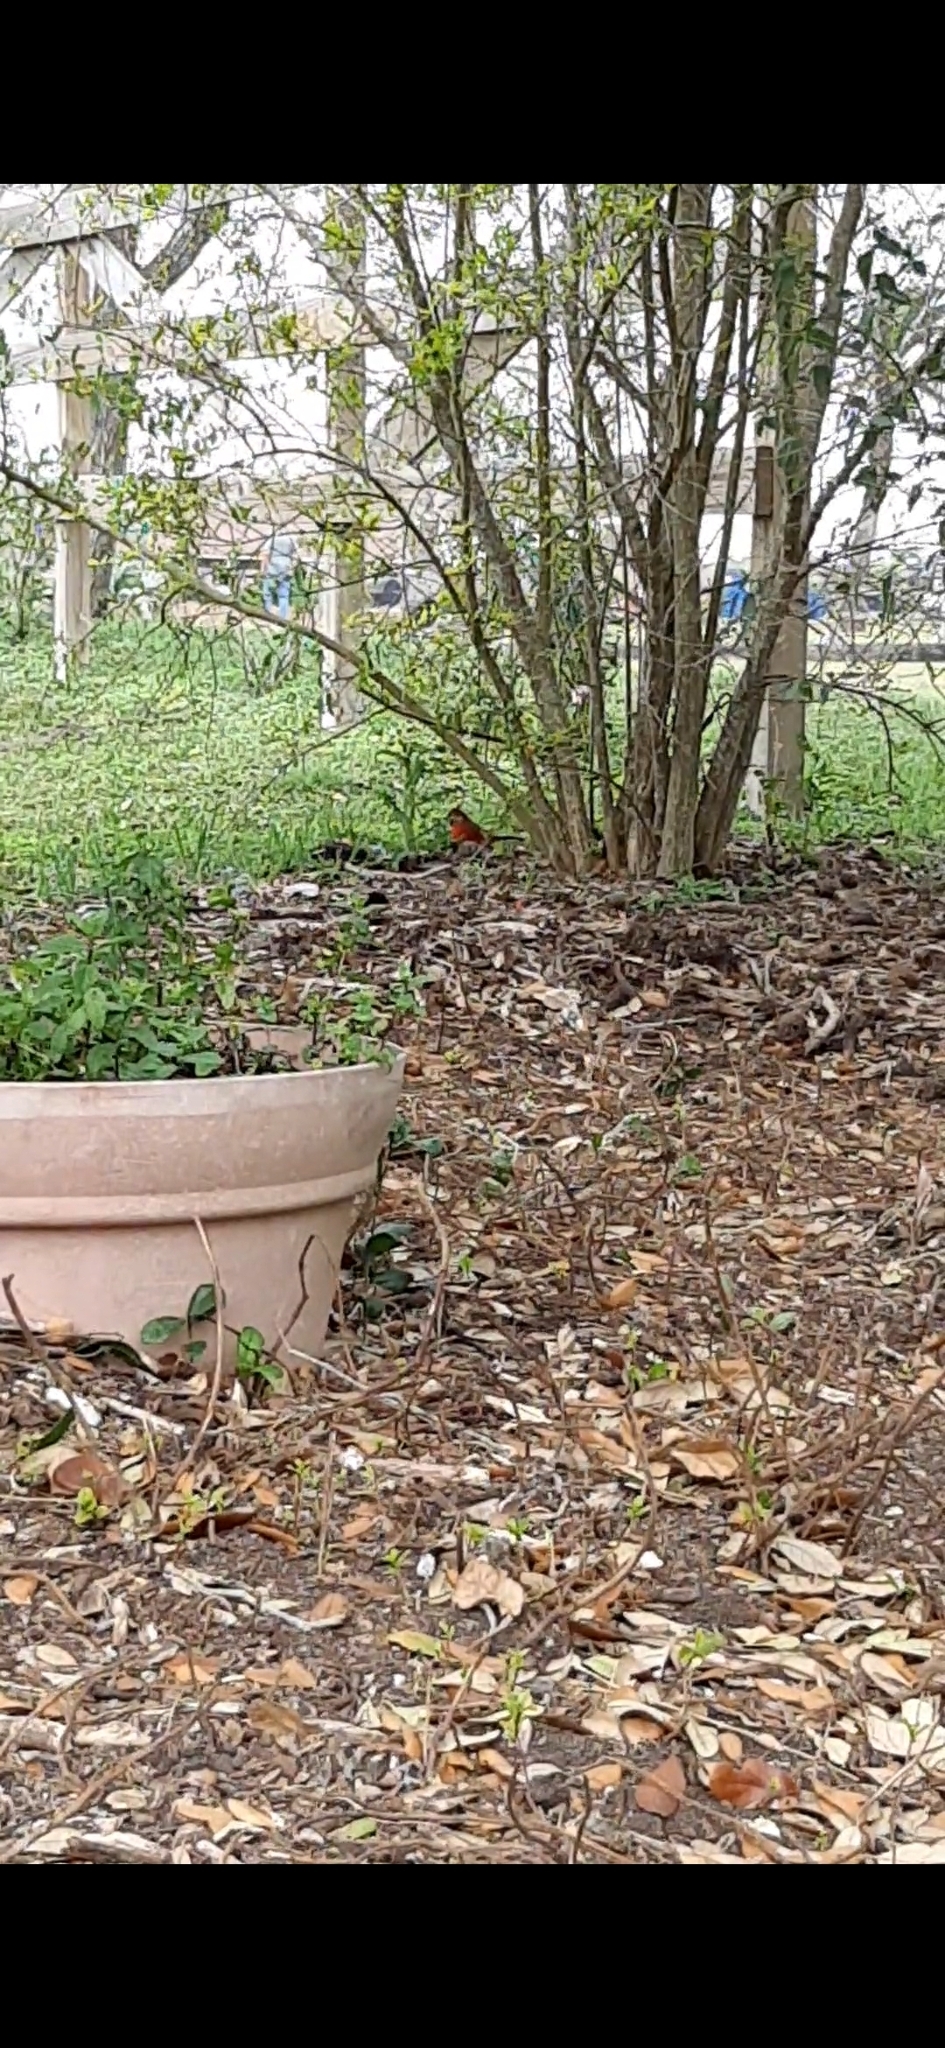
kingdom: Animalia
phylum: Chordata
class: Aves
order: Passeriformes
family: Cardinalidae
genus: Cardinalis
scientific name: Cardinalis cardinalis
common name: Northern cardinal
